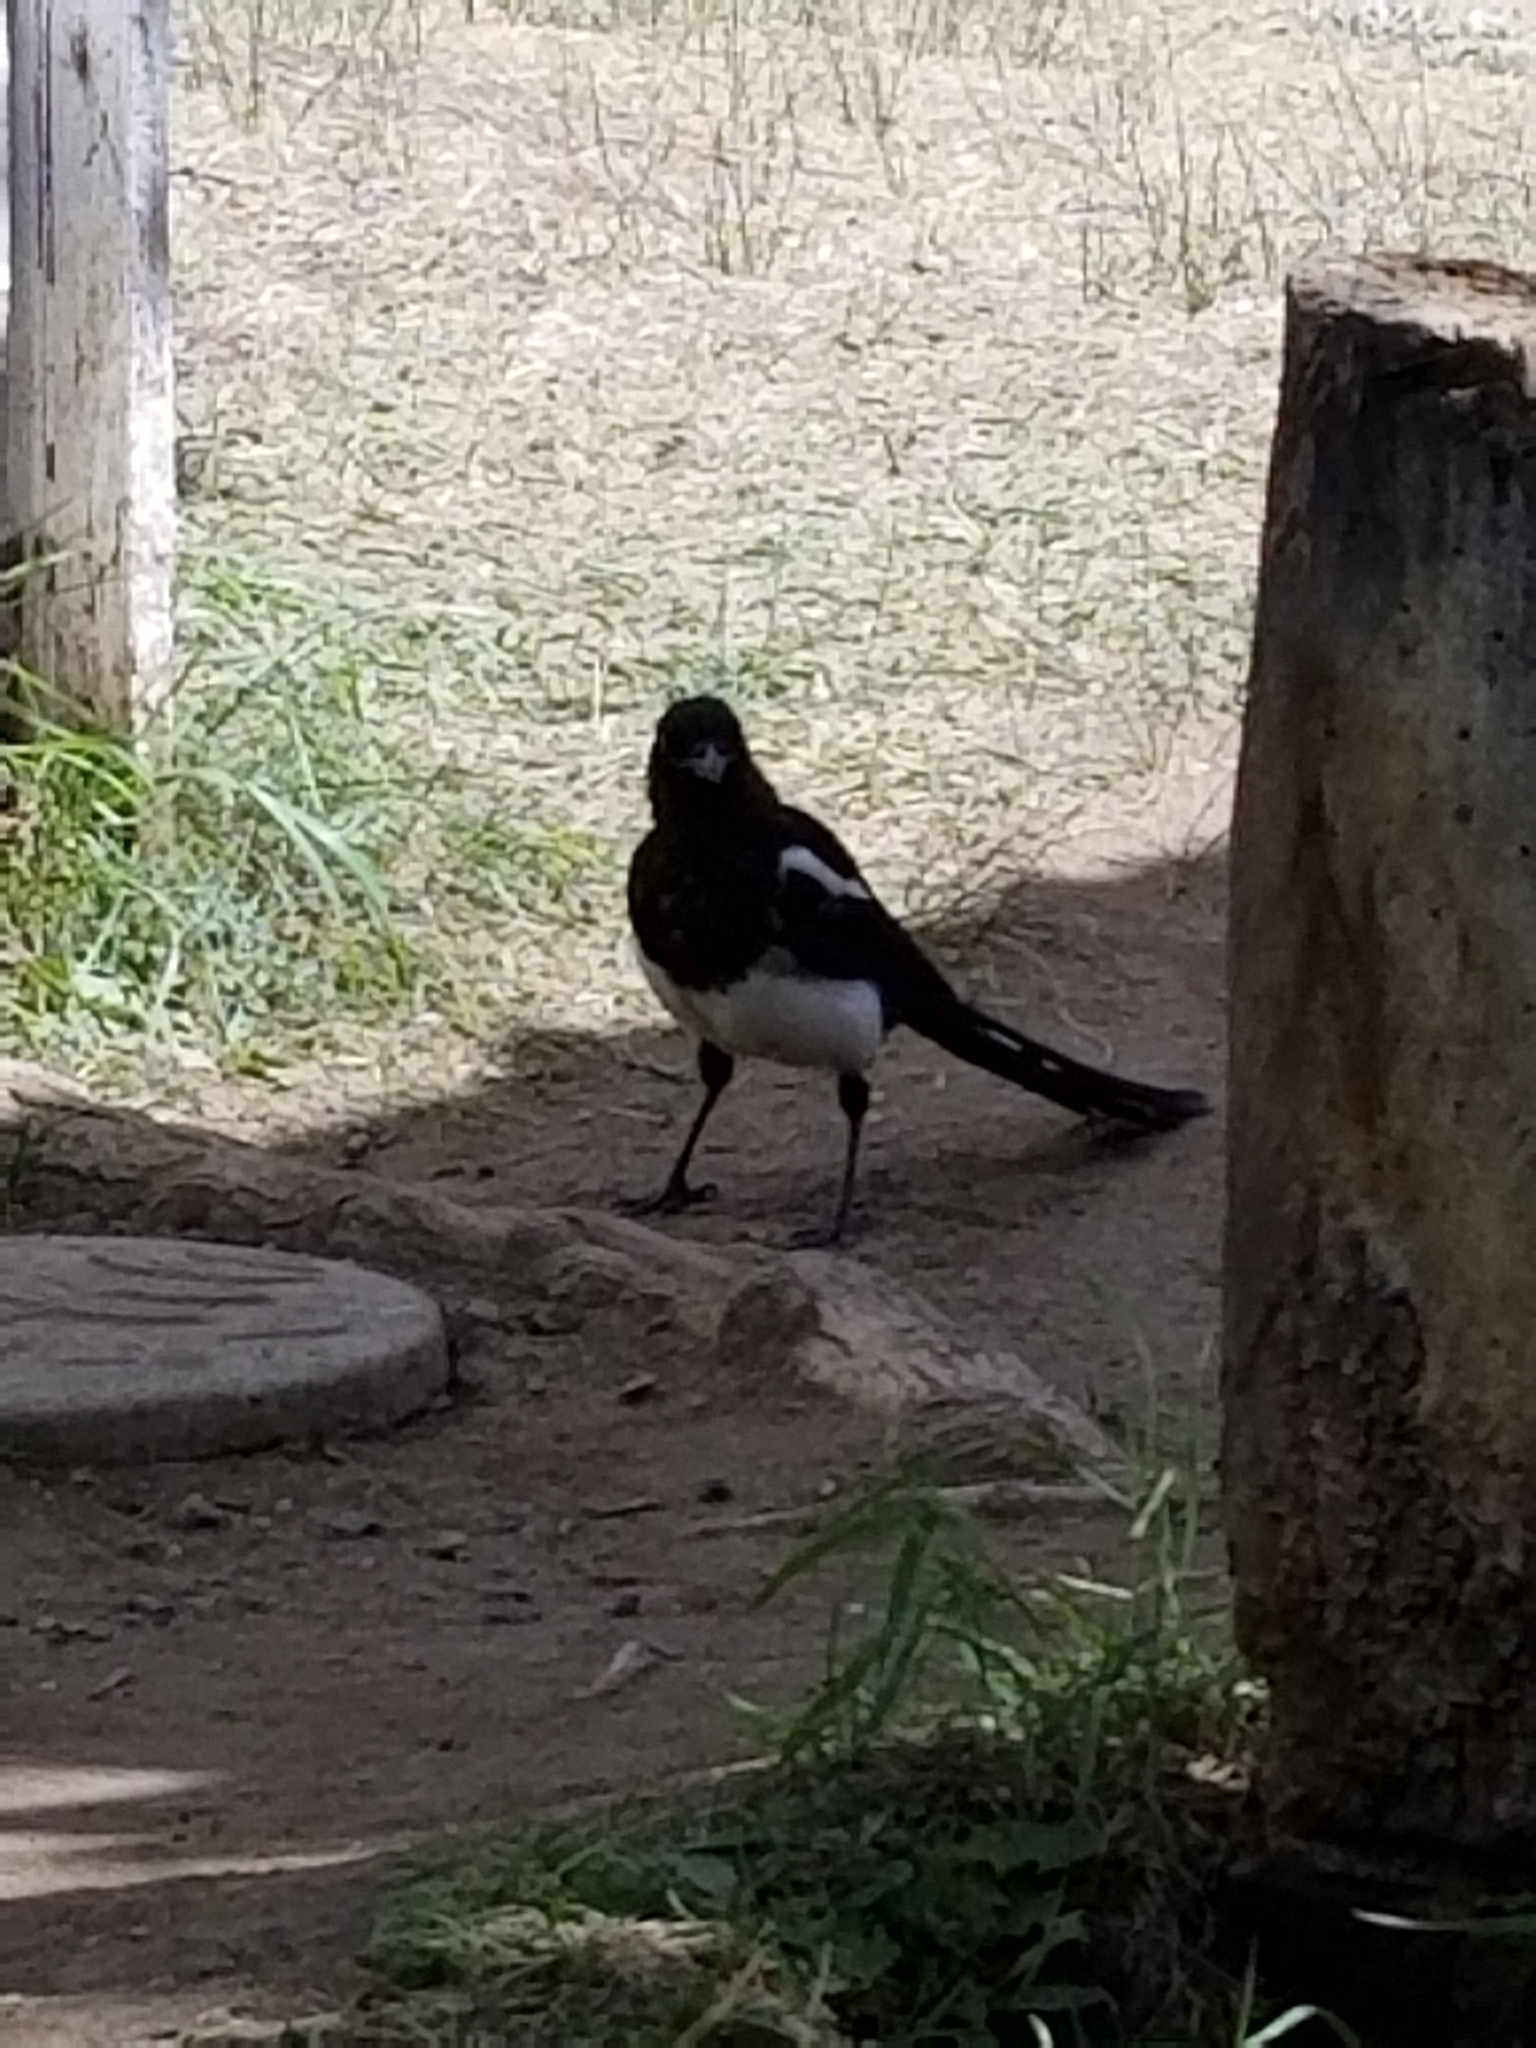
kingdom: Animalia
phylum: Chordata
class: Aves
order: Passeriformes
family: Corvidae
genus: Pica
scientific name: Pica hudsonia
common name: Black-billed magpie
